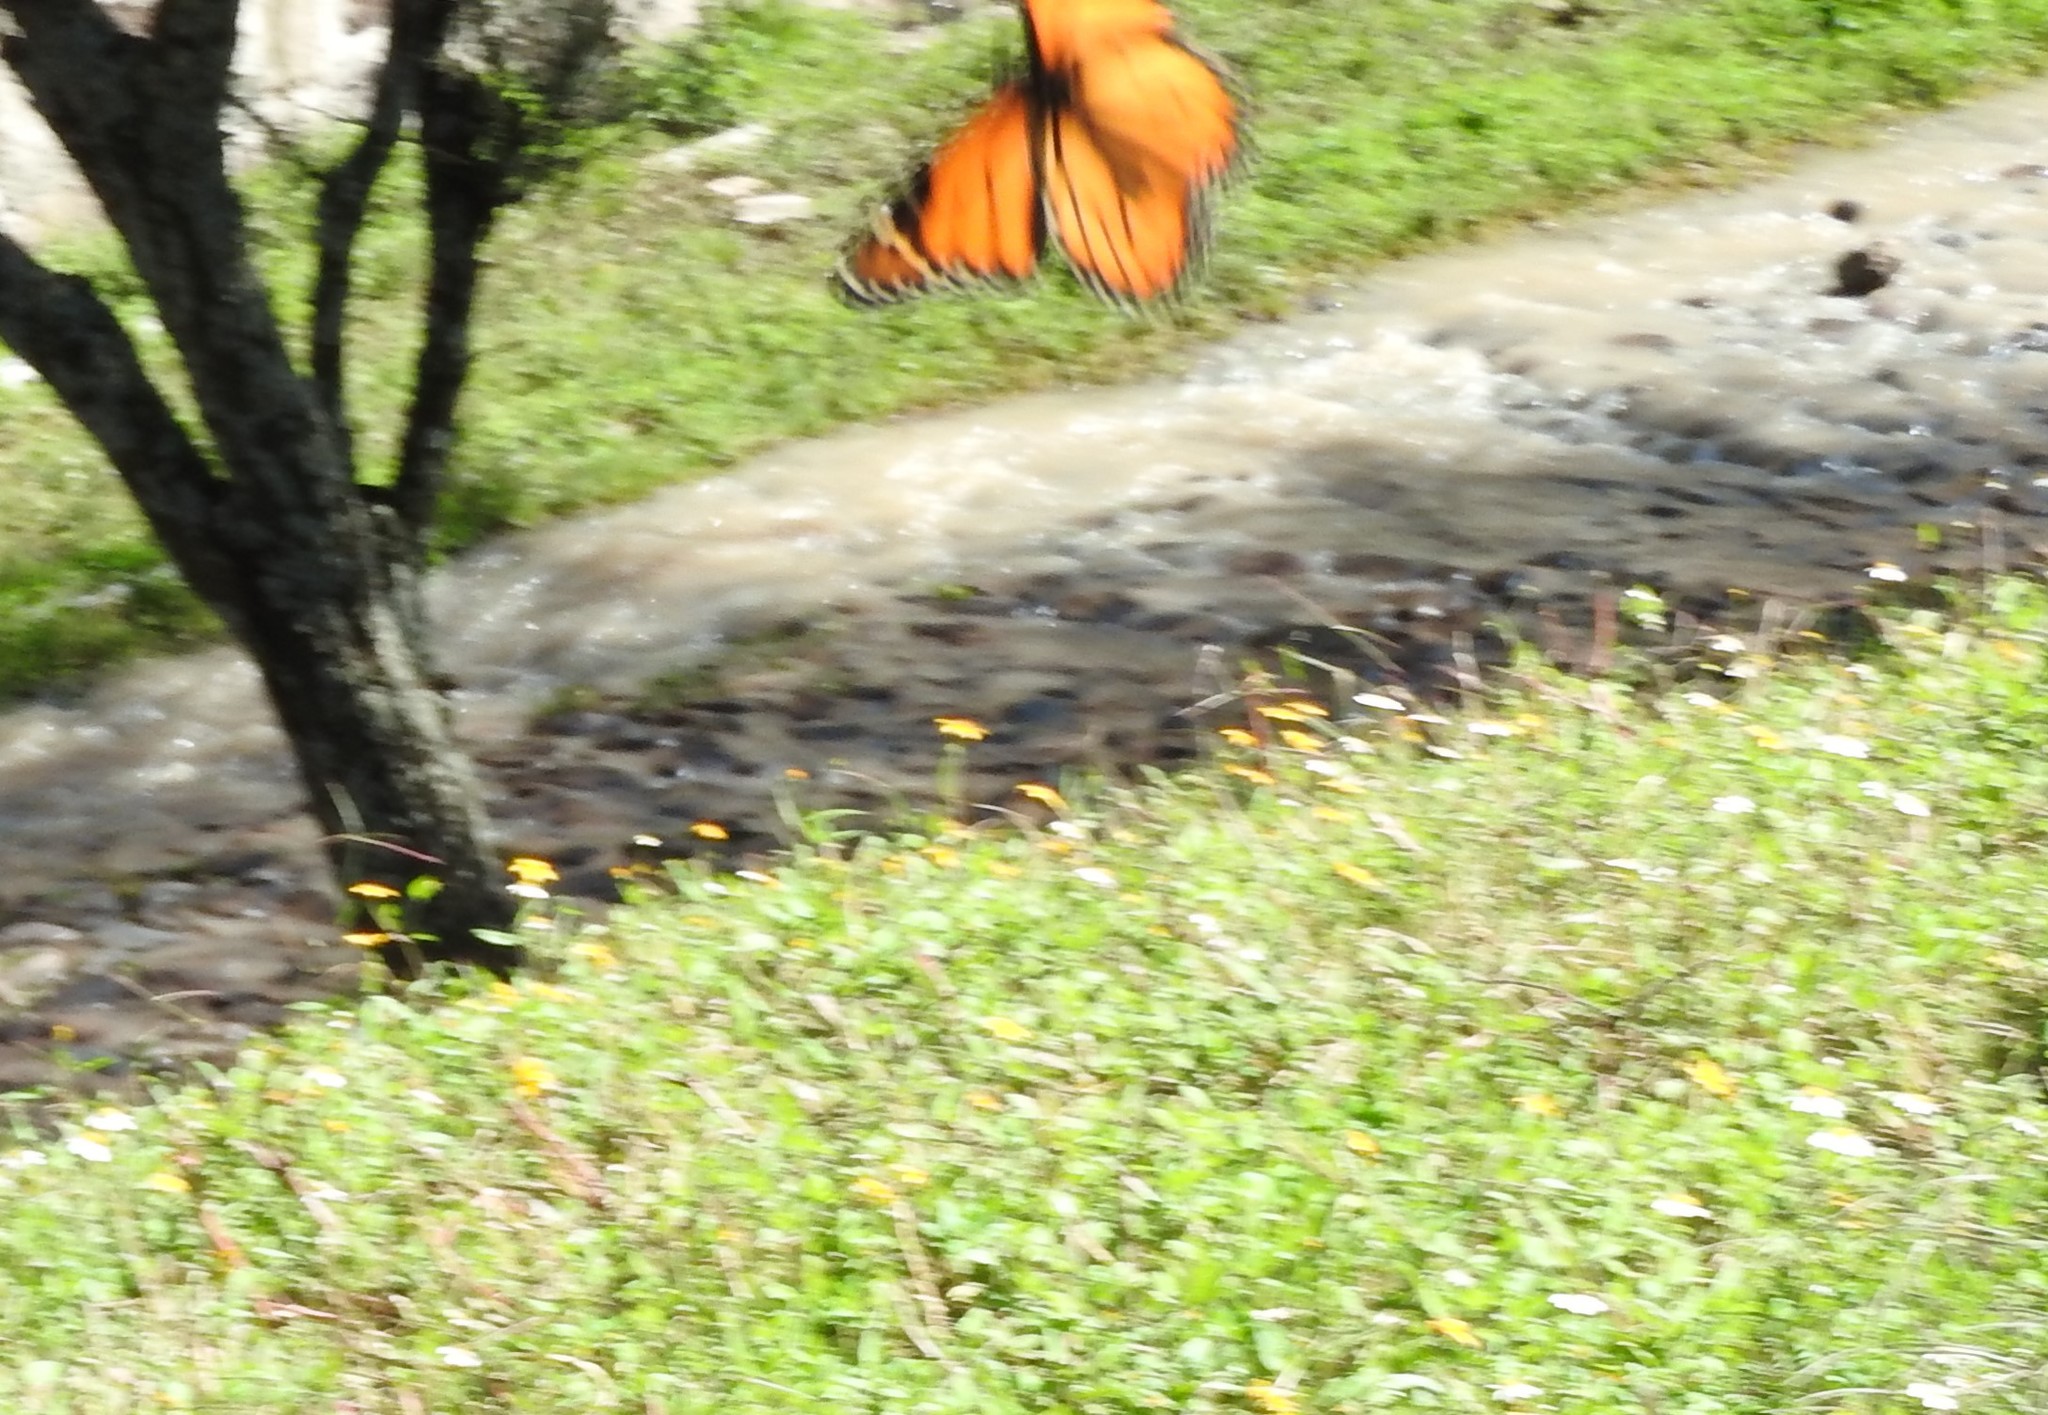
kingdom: Animalia
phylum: Arthropoda
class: Insecta
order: Lepidoptera
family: Nymphalidae
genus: Danaus
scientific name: Danaus plexippus
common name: Monarch
